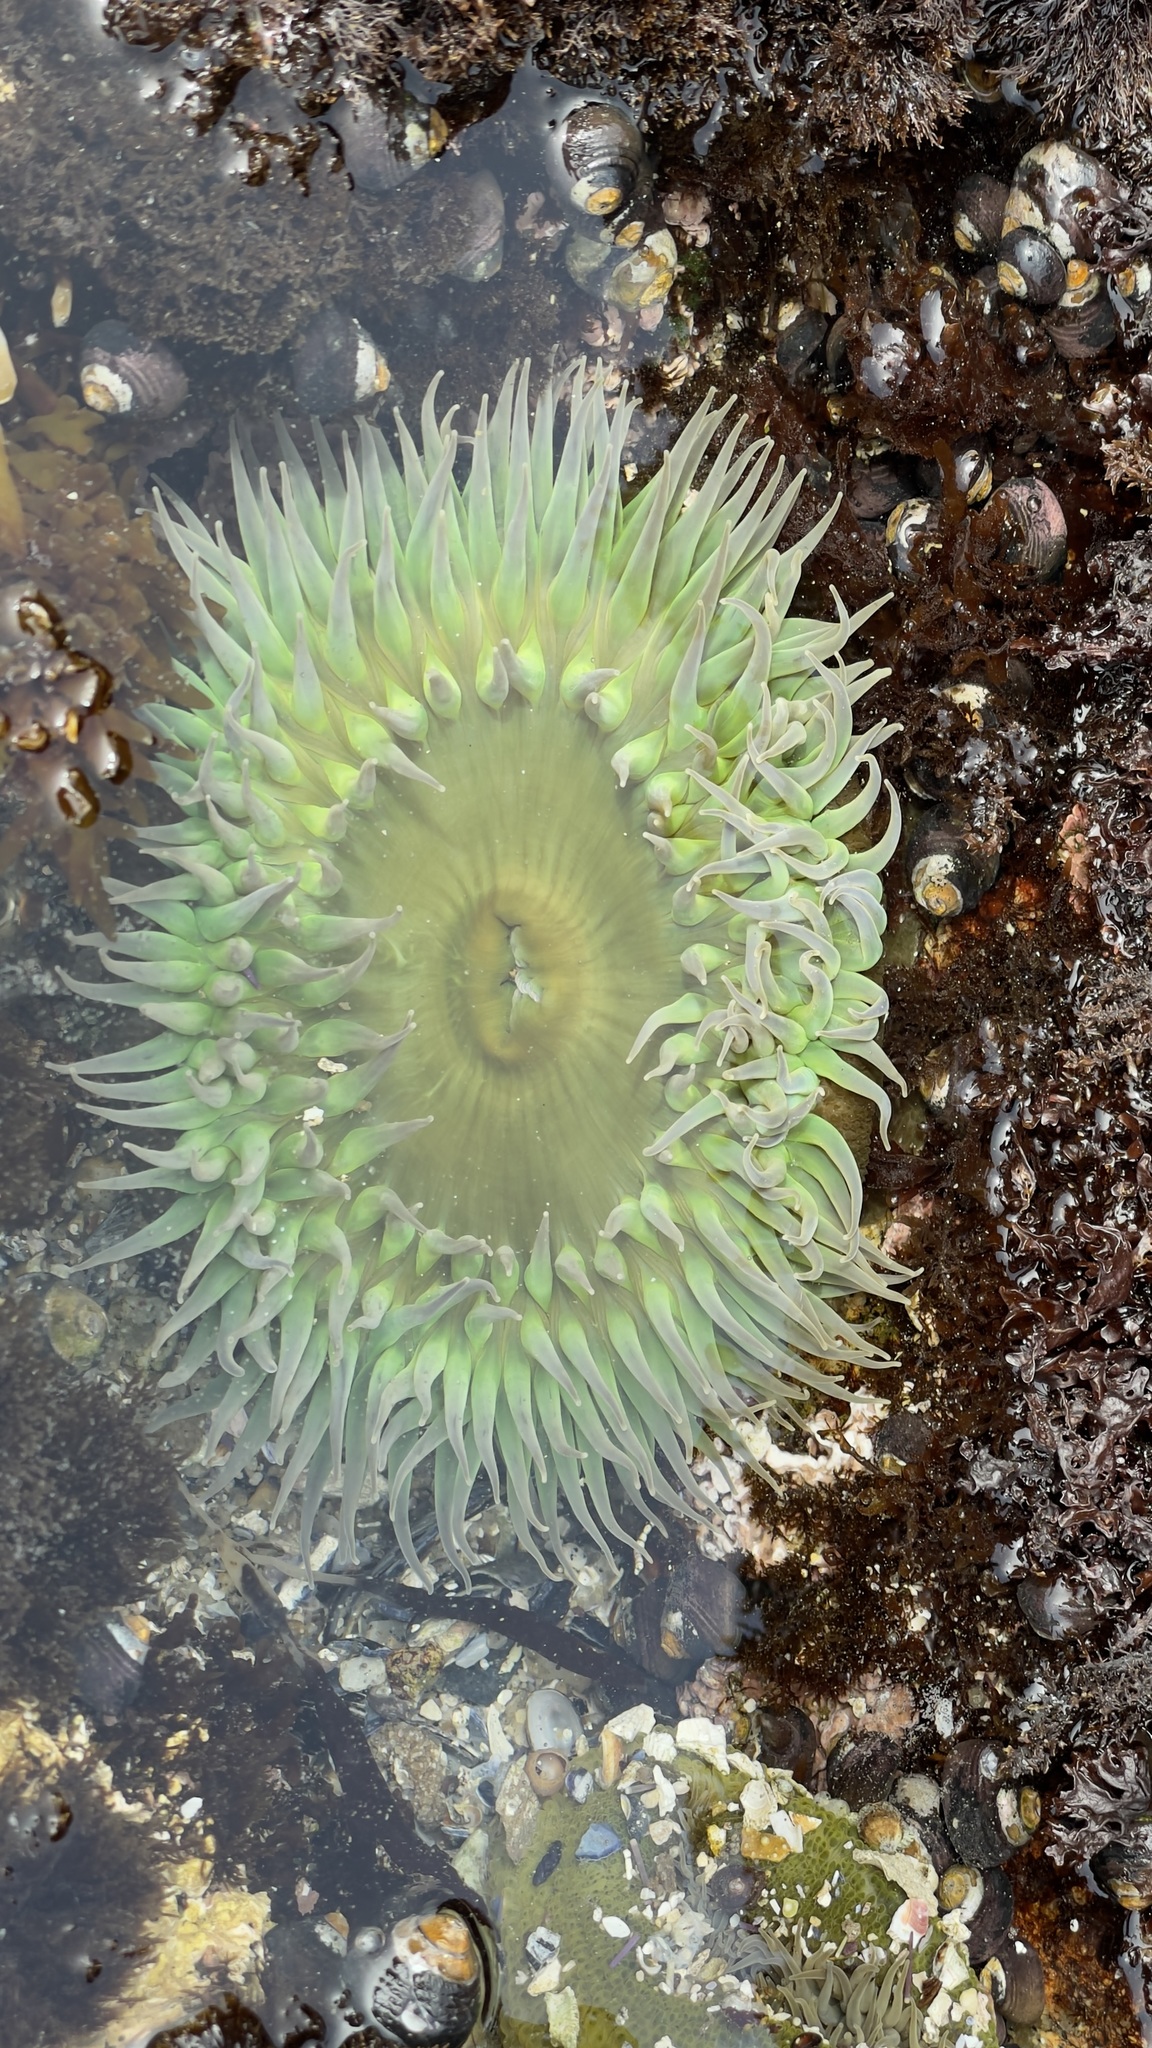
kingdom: Animalia
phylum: Cnidaria
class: Anthozoa
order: Actiniaria
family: Actiniidae
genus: Anthopleura
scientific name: Anthopleura xanthogrammica
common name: Giant green anemone
